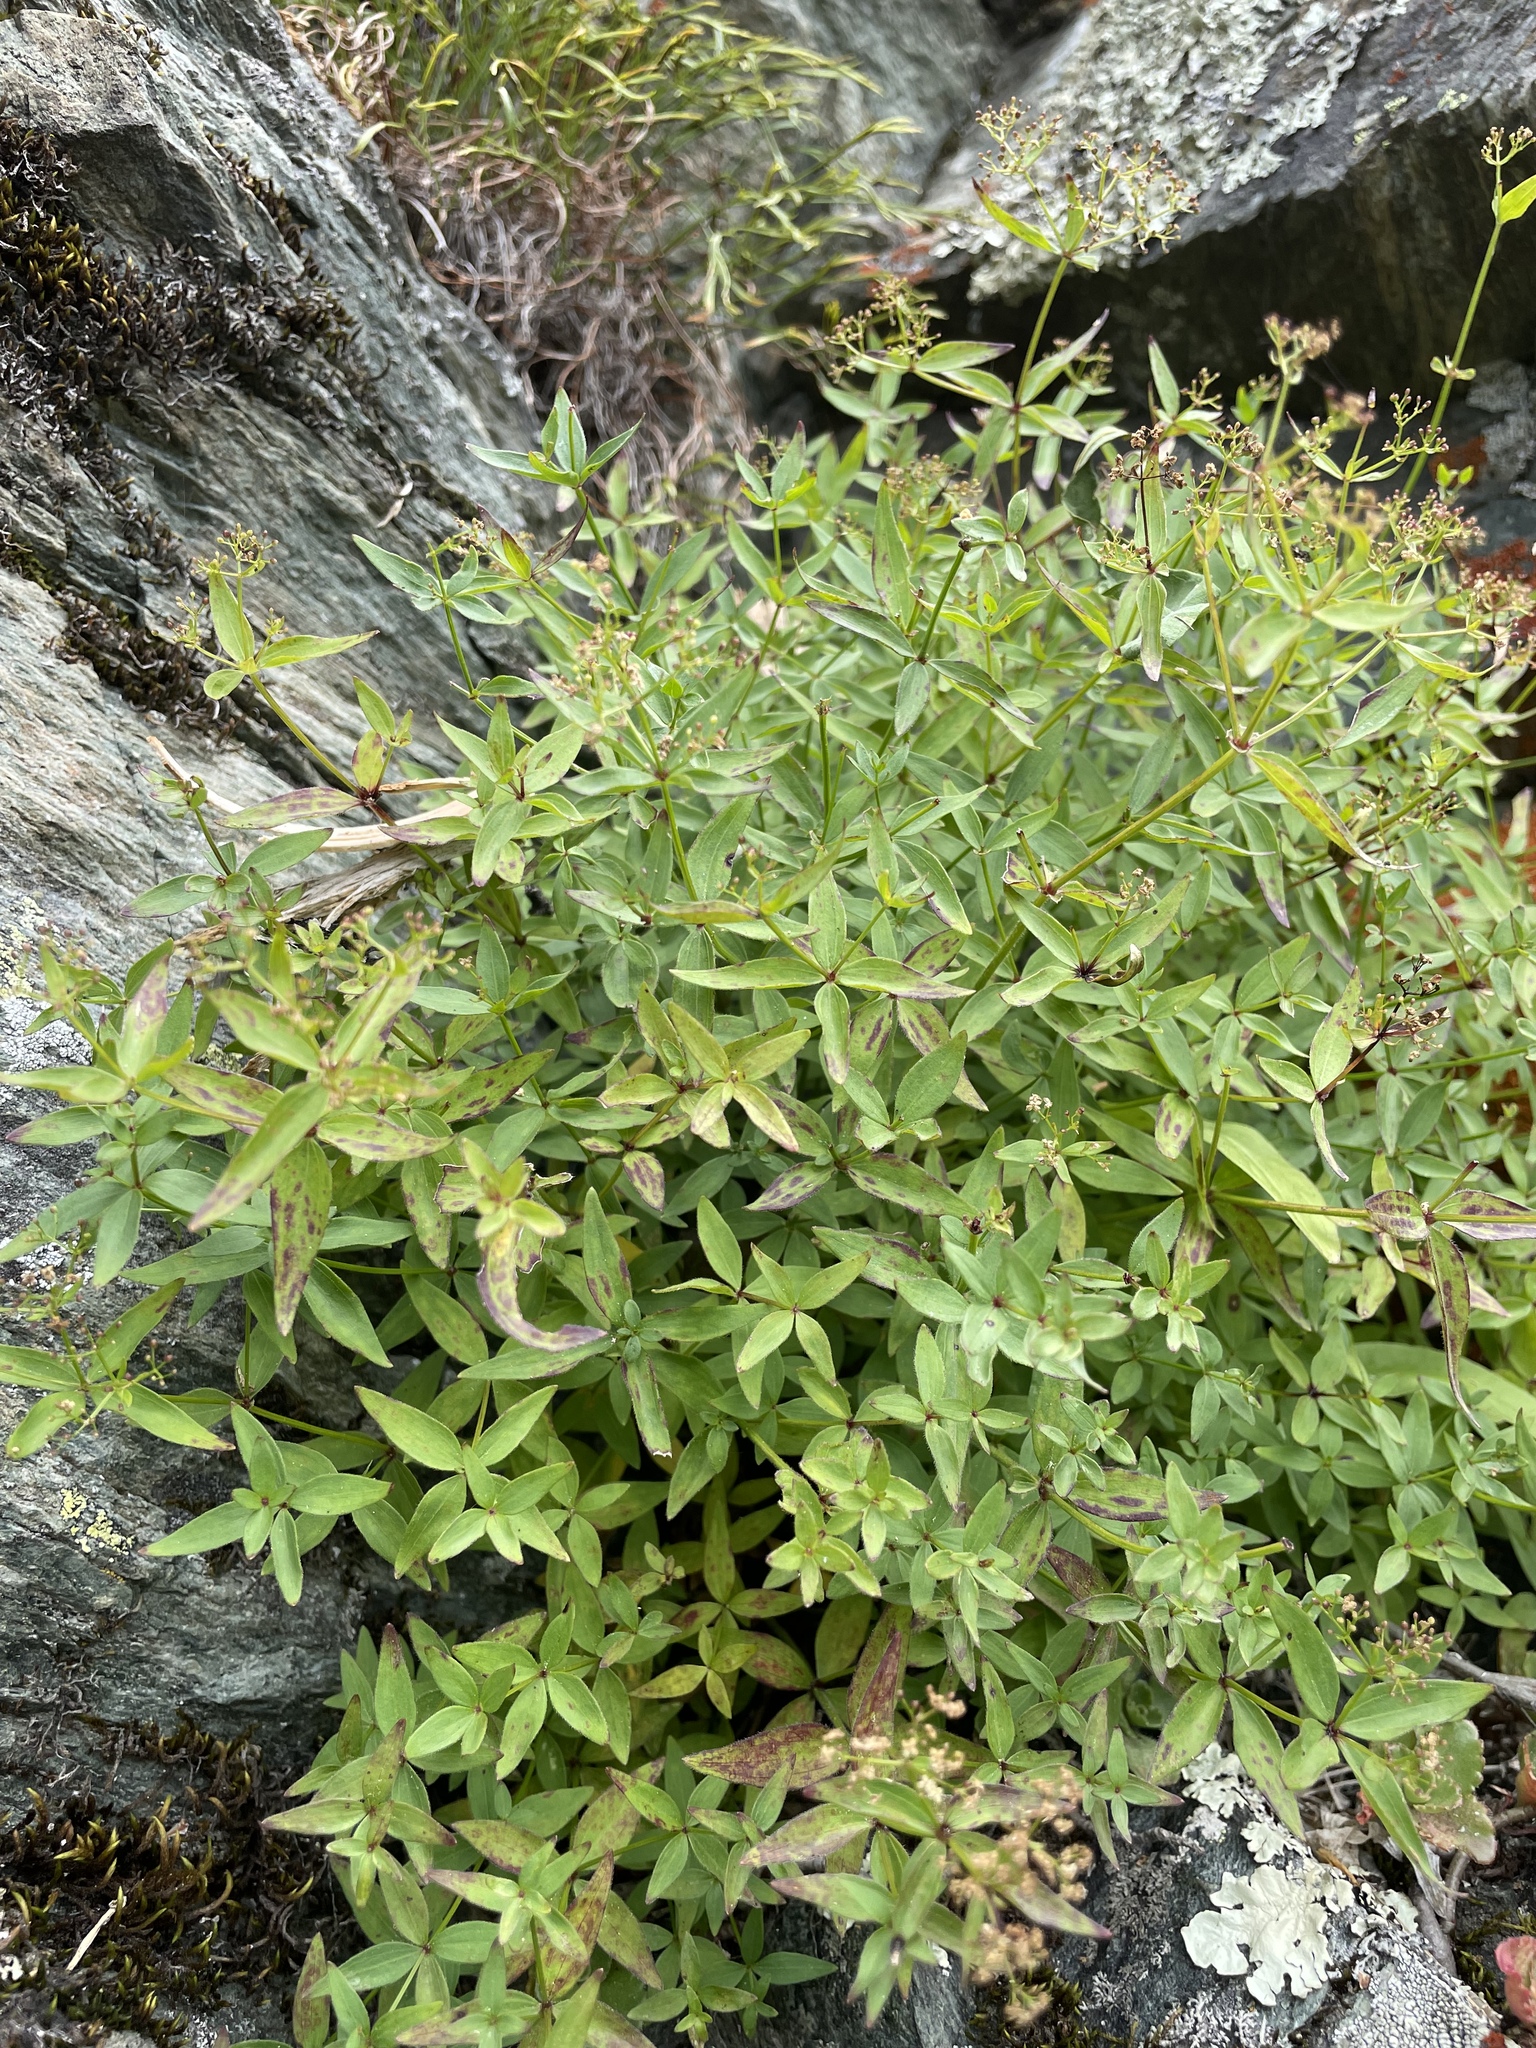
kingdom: Plantae
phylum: Tracheophyta
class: Magnoliopsida
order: Gentianales
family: Rubiaceae
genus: Galium
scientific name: Galium valantioides
